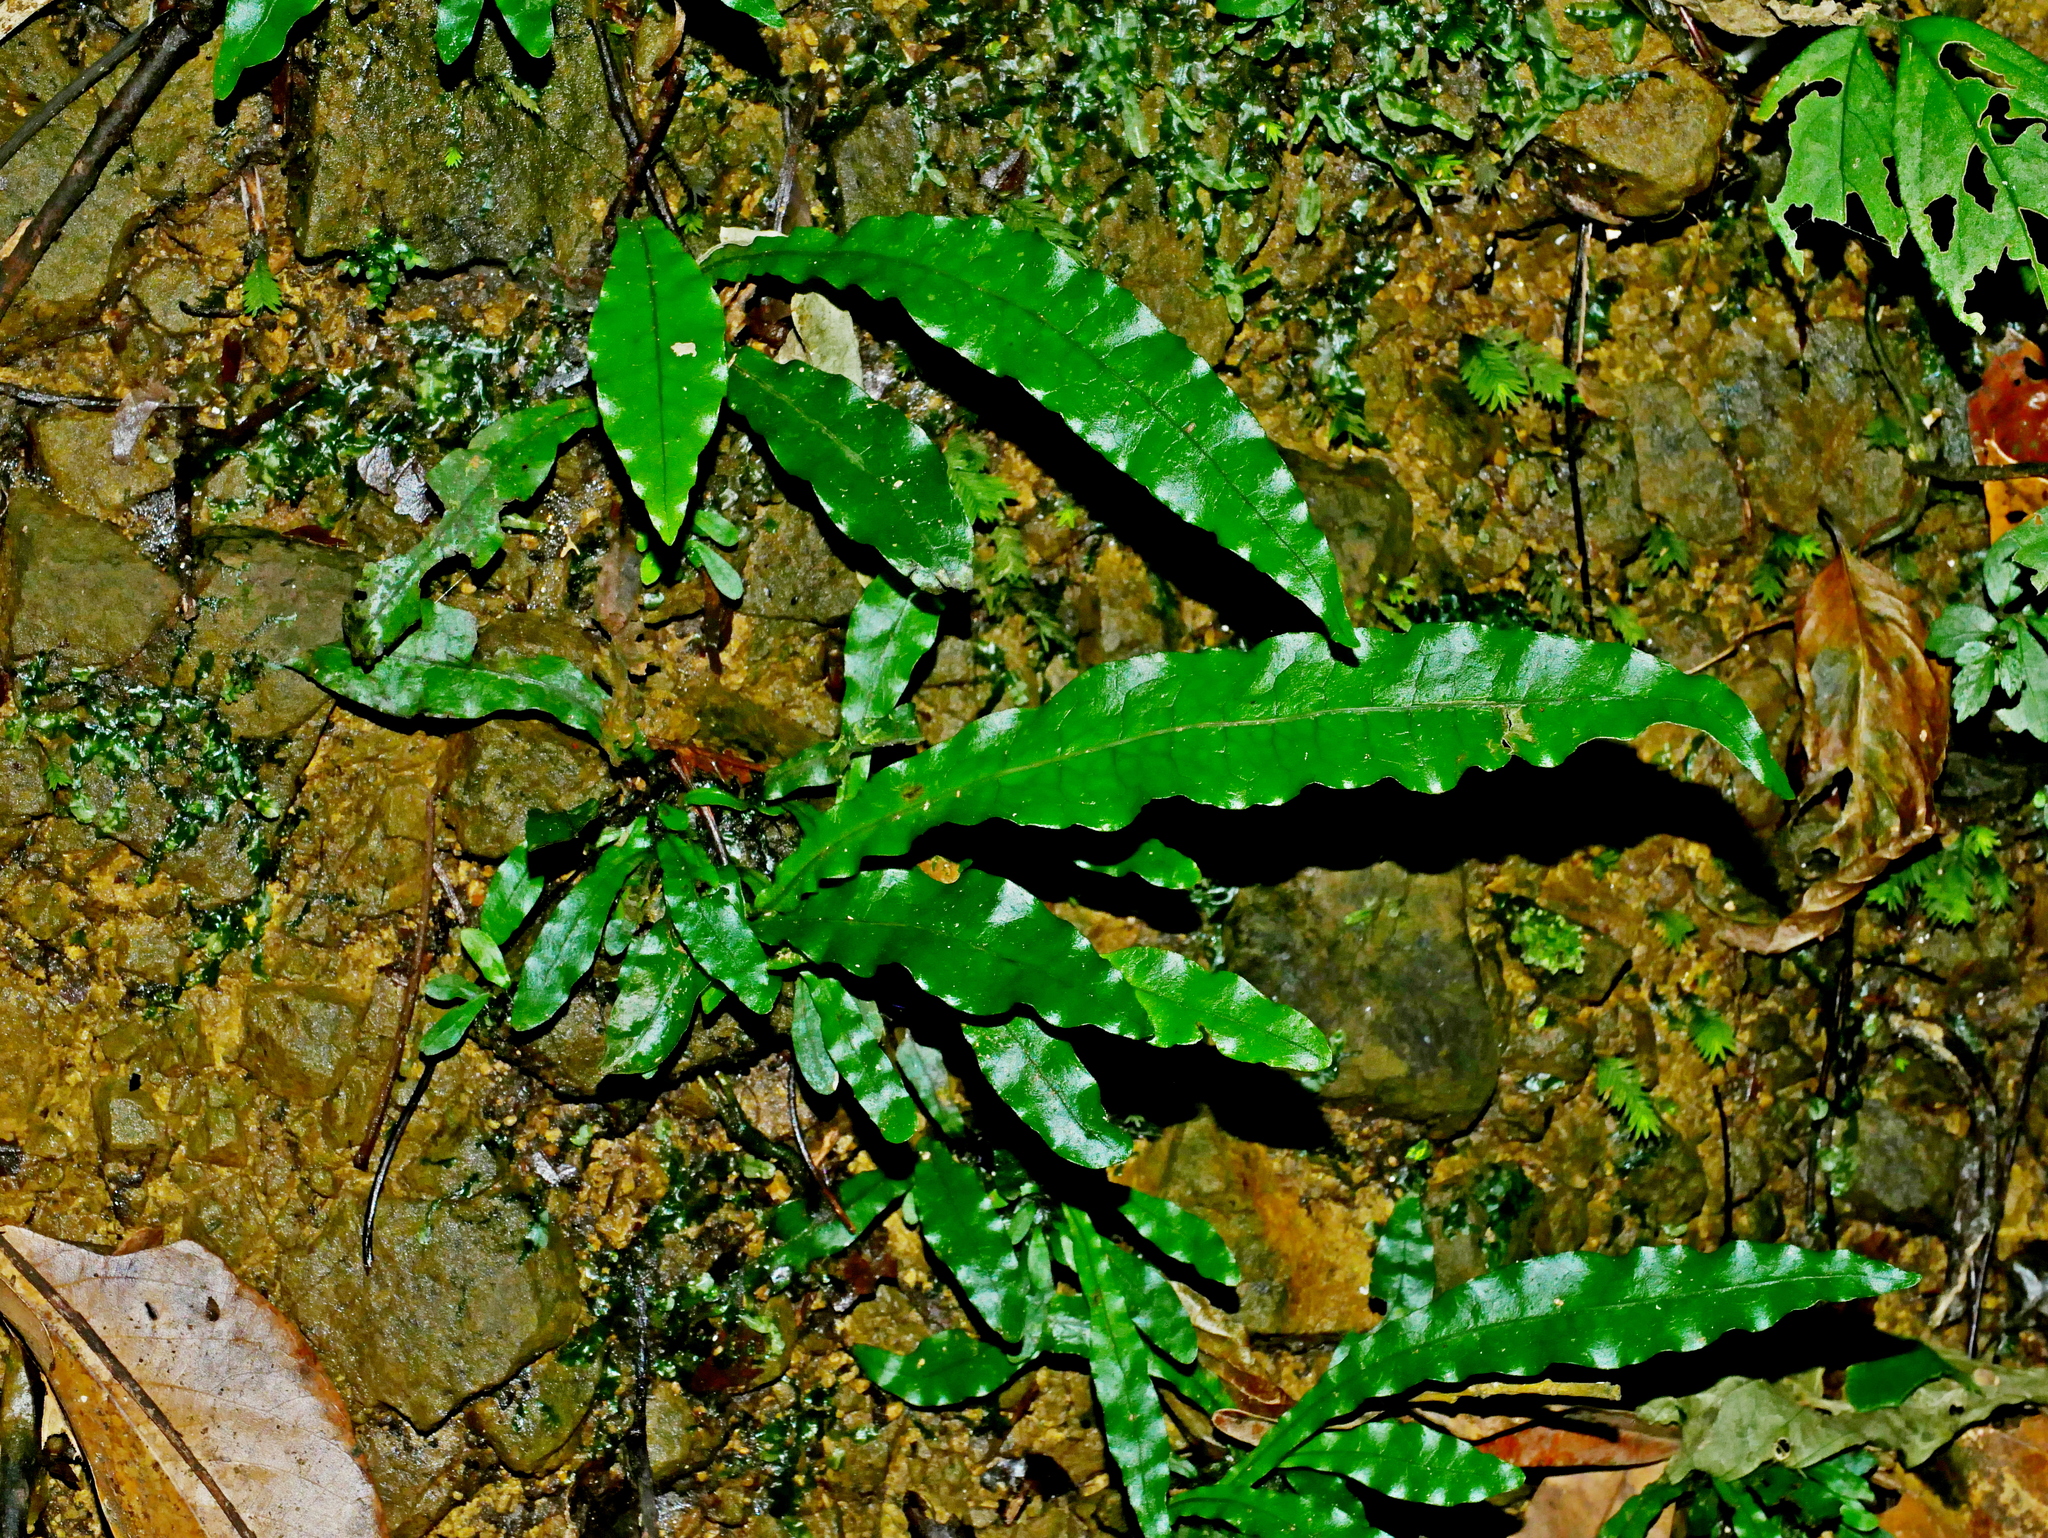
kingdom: Plantae
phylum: Tracheophyta
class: Polypodiopsida
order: Polypodiales
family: Polypodiaceae
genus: Leptochilus
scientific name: Leptochilus hemionitideus
